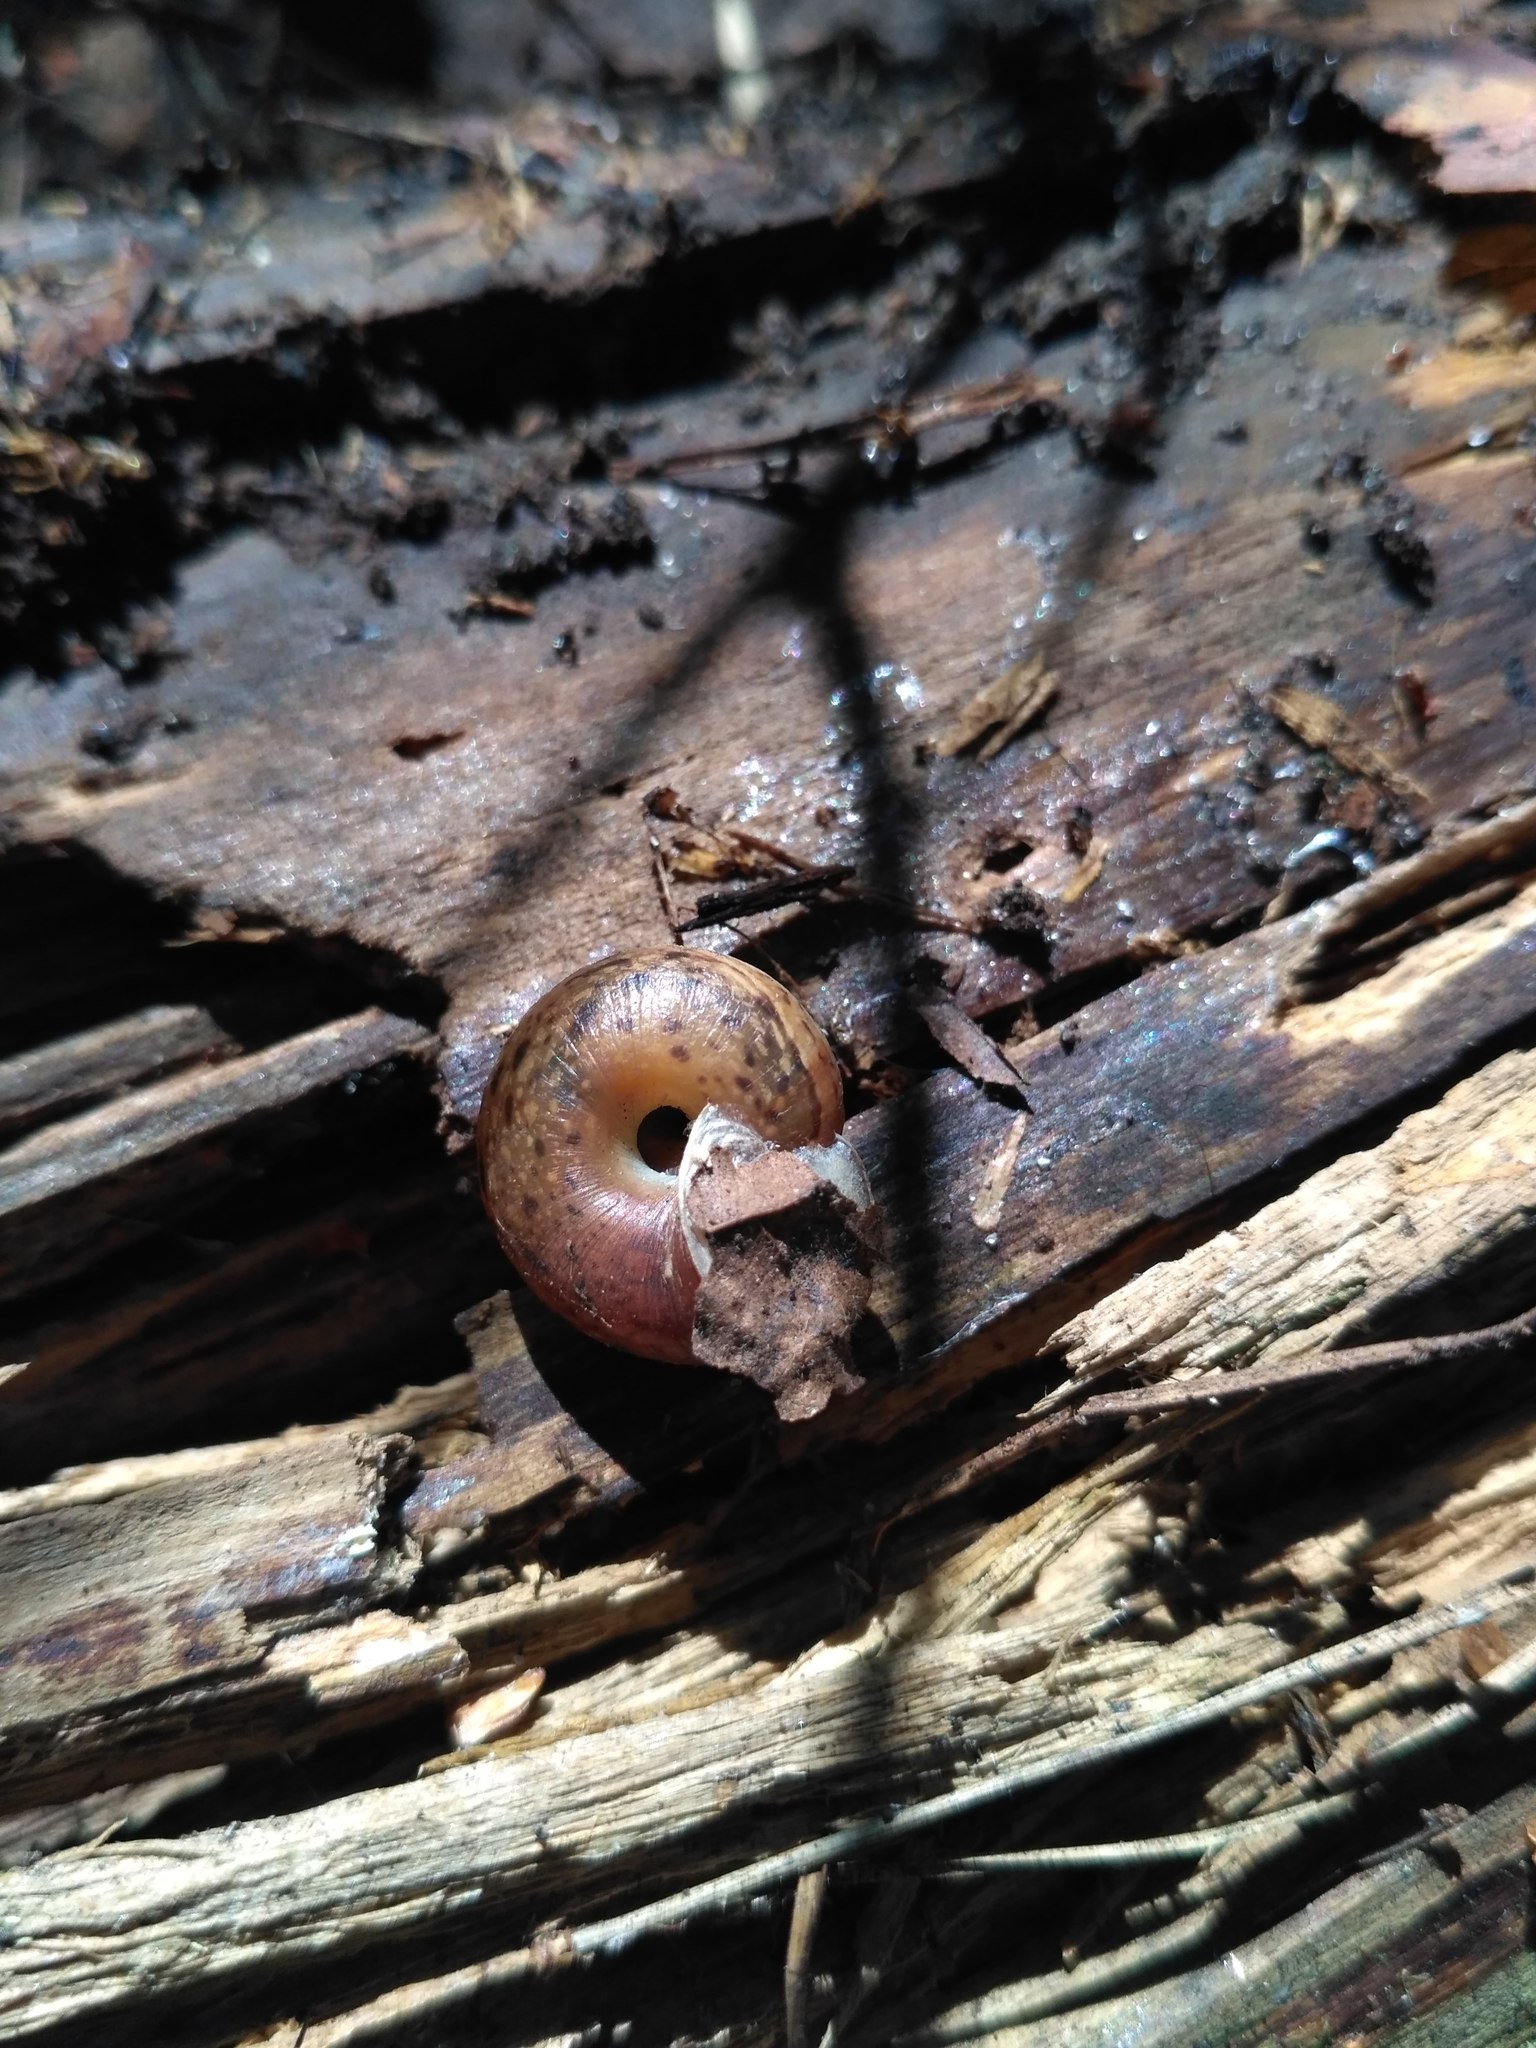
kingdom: Animalia
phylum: Mollusca
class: Gastropoda
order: Stylommatophora
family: Hygromiidae
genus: Euomphalia
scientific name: Euomphalia strigella
